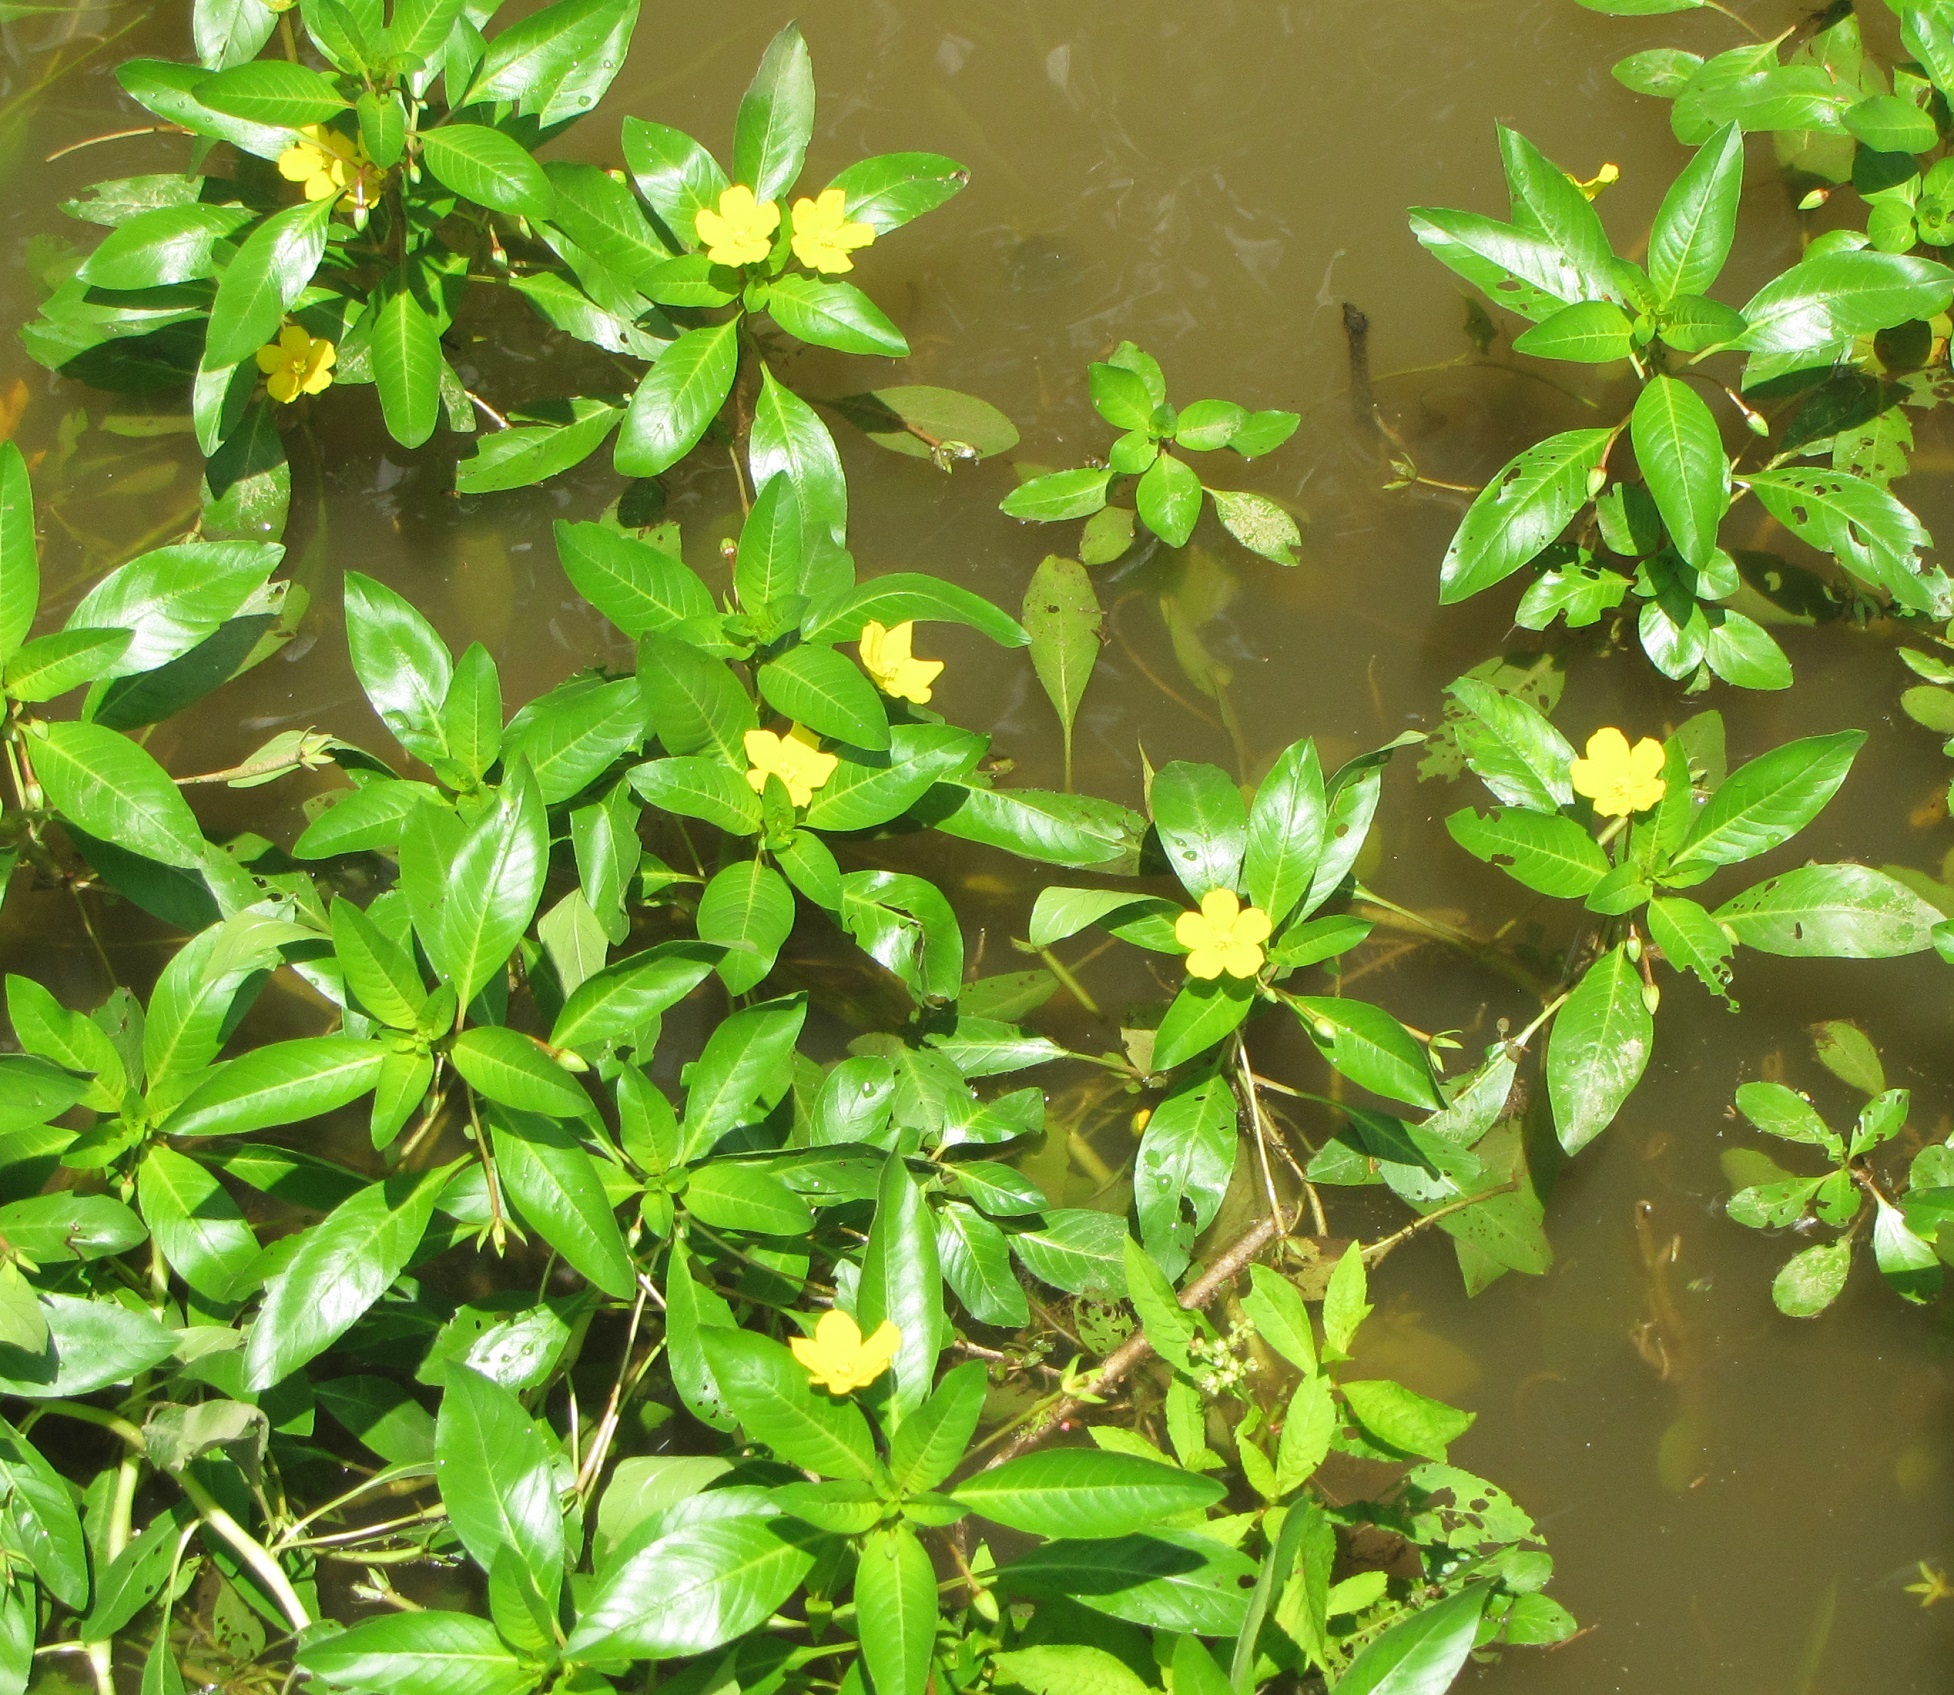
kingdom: Plantae
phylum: Tracheophyta
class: Magnoliopsida
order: Myrtales
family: Onagraceae
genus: Ludwigia
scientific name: Ludwigia peploides
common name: Floating primrose-willow
